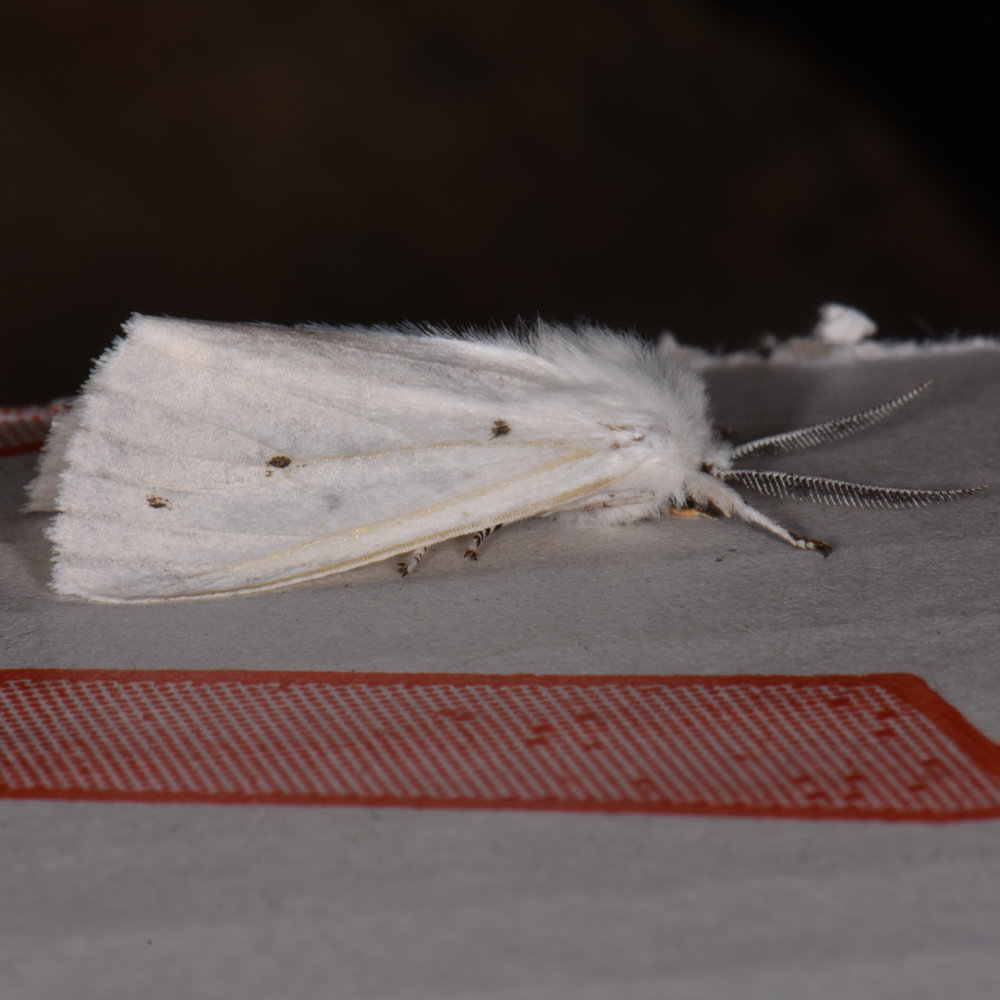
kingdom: Animalia
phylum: Arthropoda
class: Insecta
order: Lepidoptera
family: Erebidae
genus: Spilosoma
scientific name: Spilosoma virginica
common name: Virginia tiger moth
